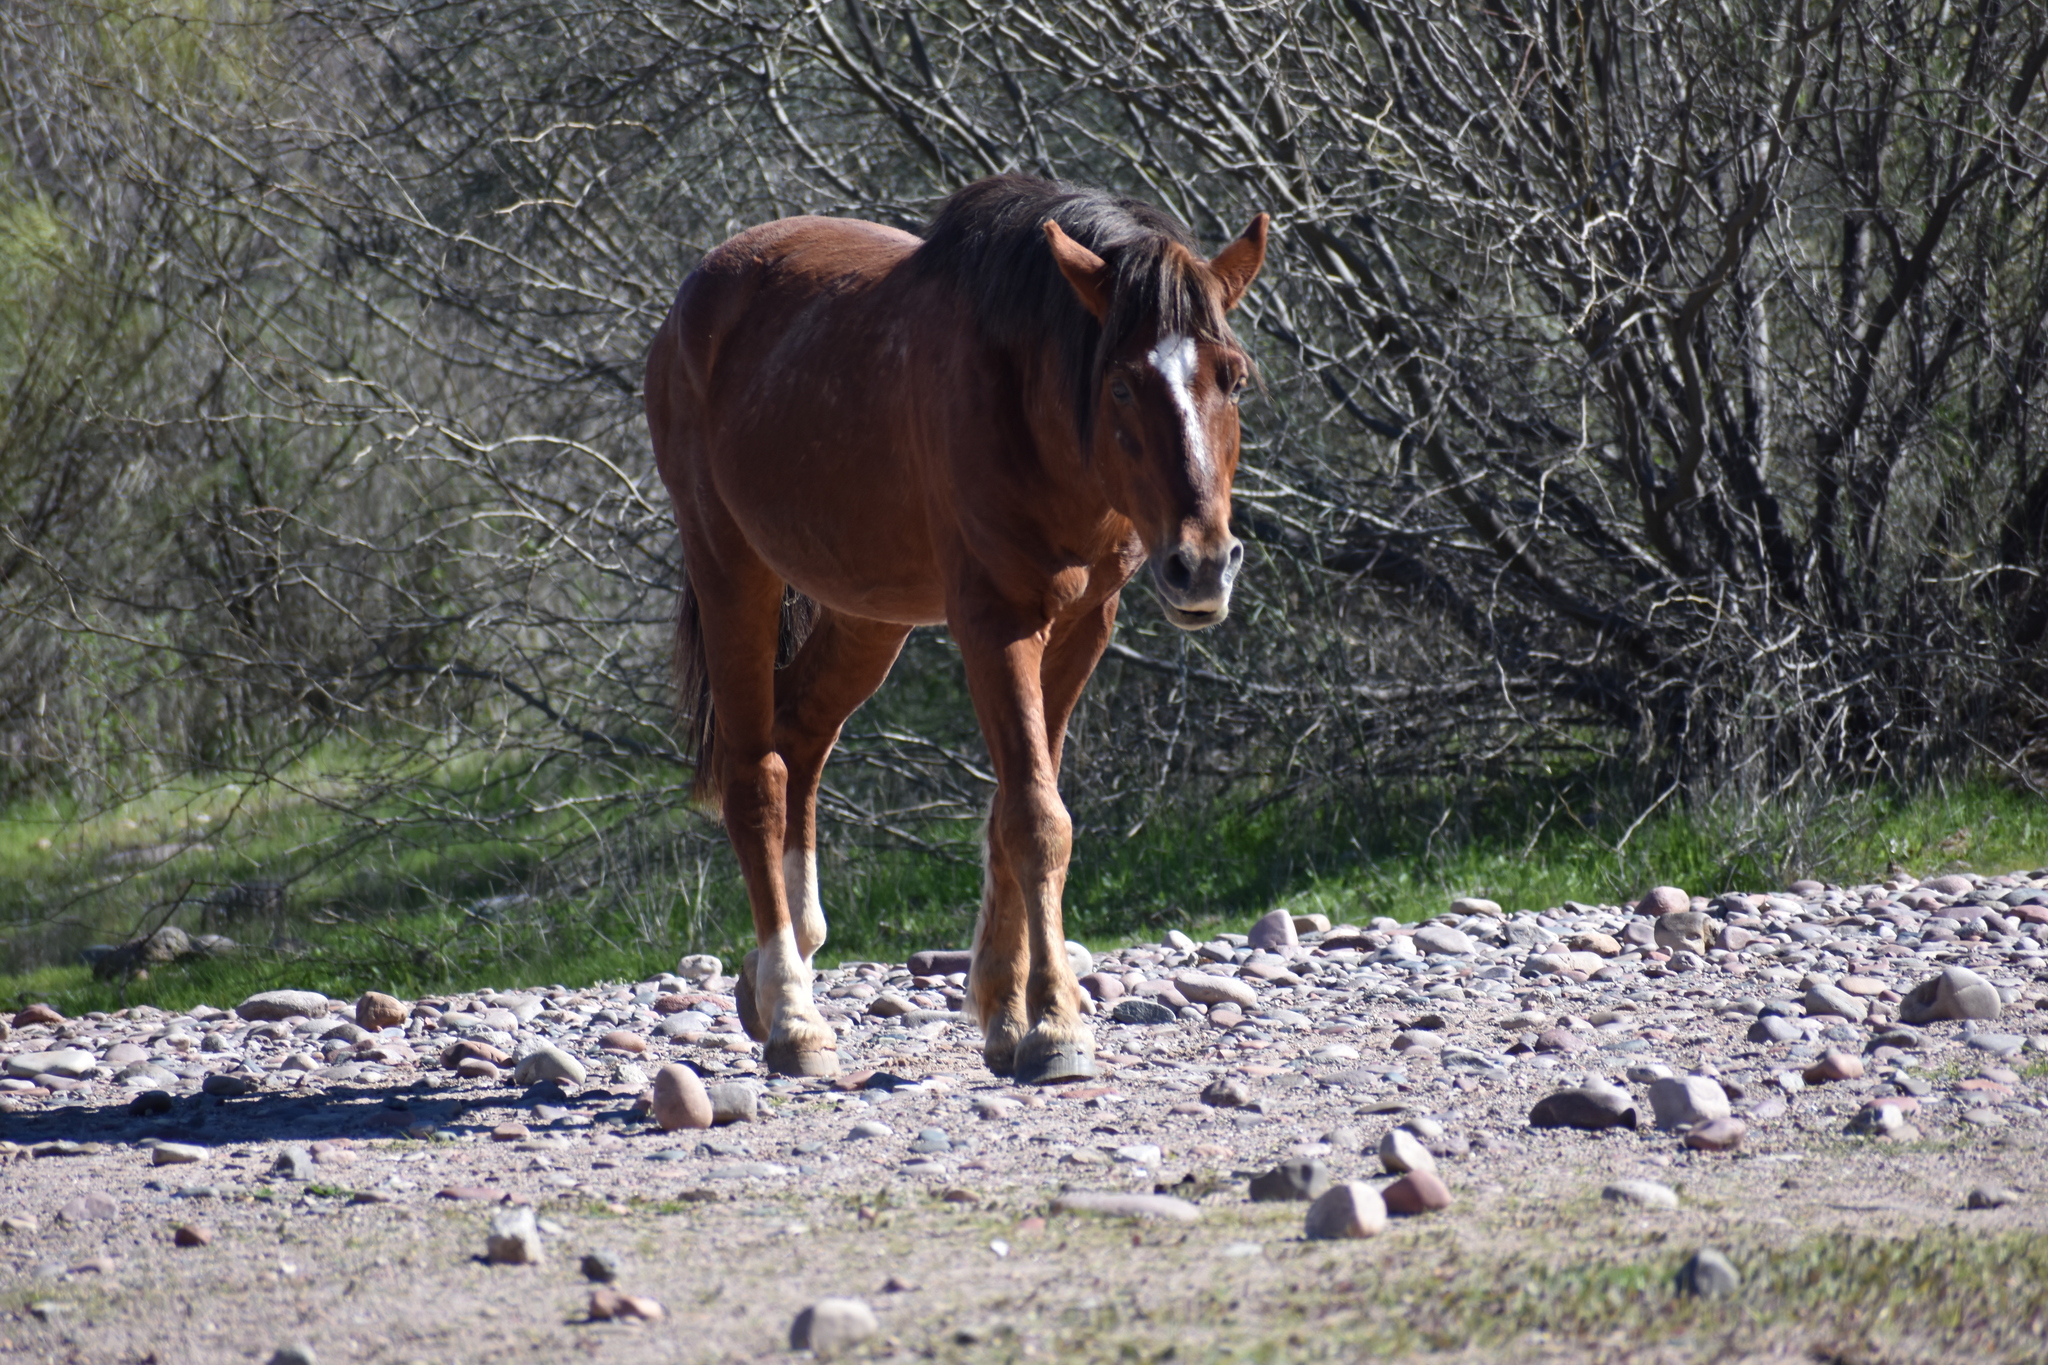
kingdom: Animalia
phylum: Chordata
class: Mammalia
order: Perissodactyla
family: Equidae
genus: Equus
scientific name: Equus caballus
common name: Horse
